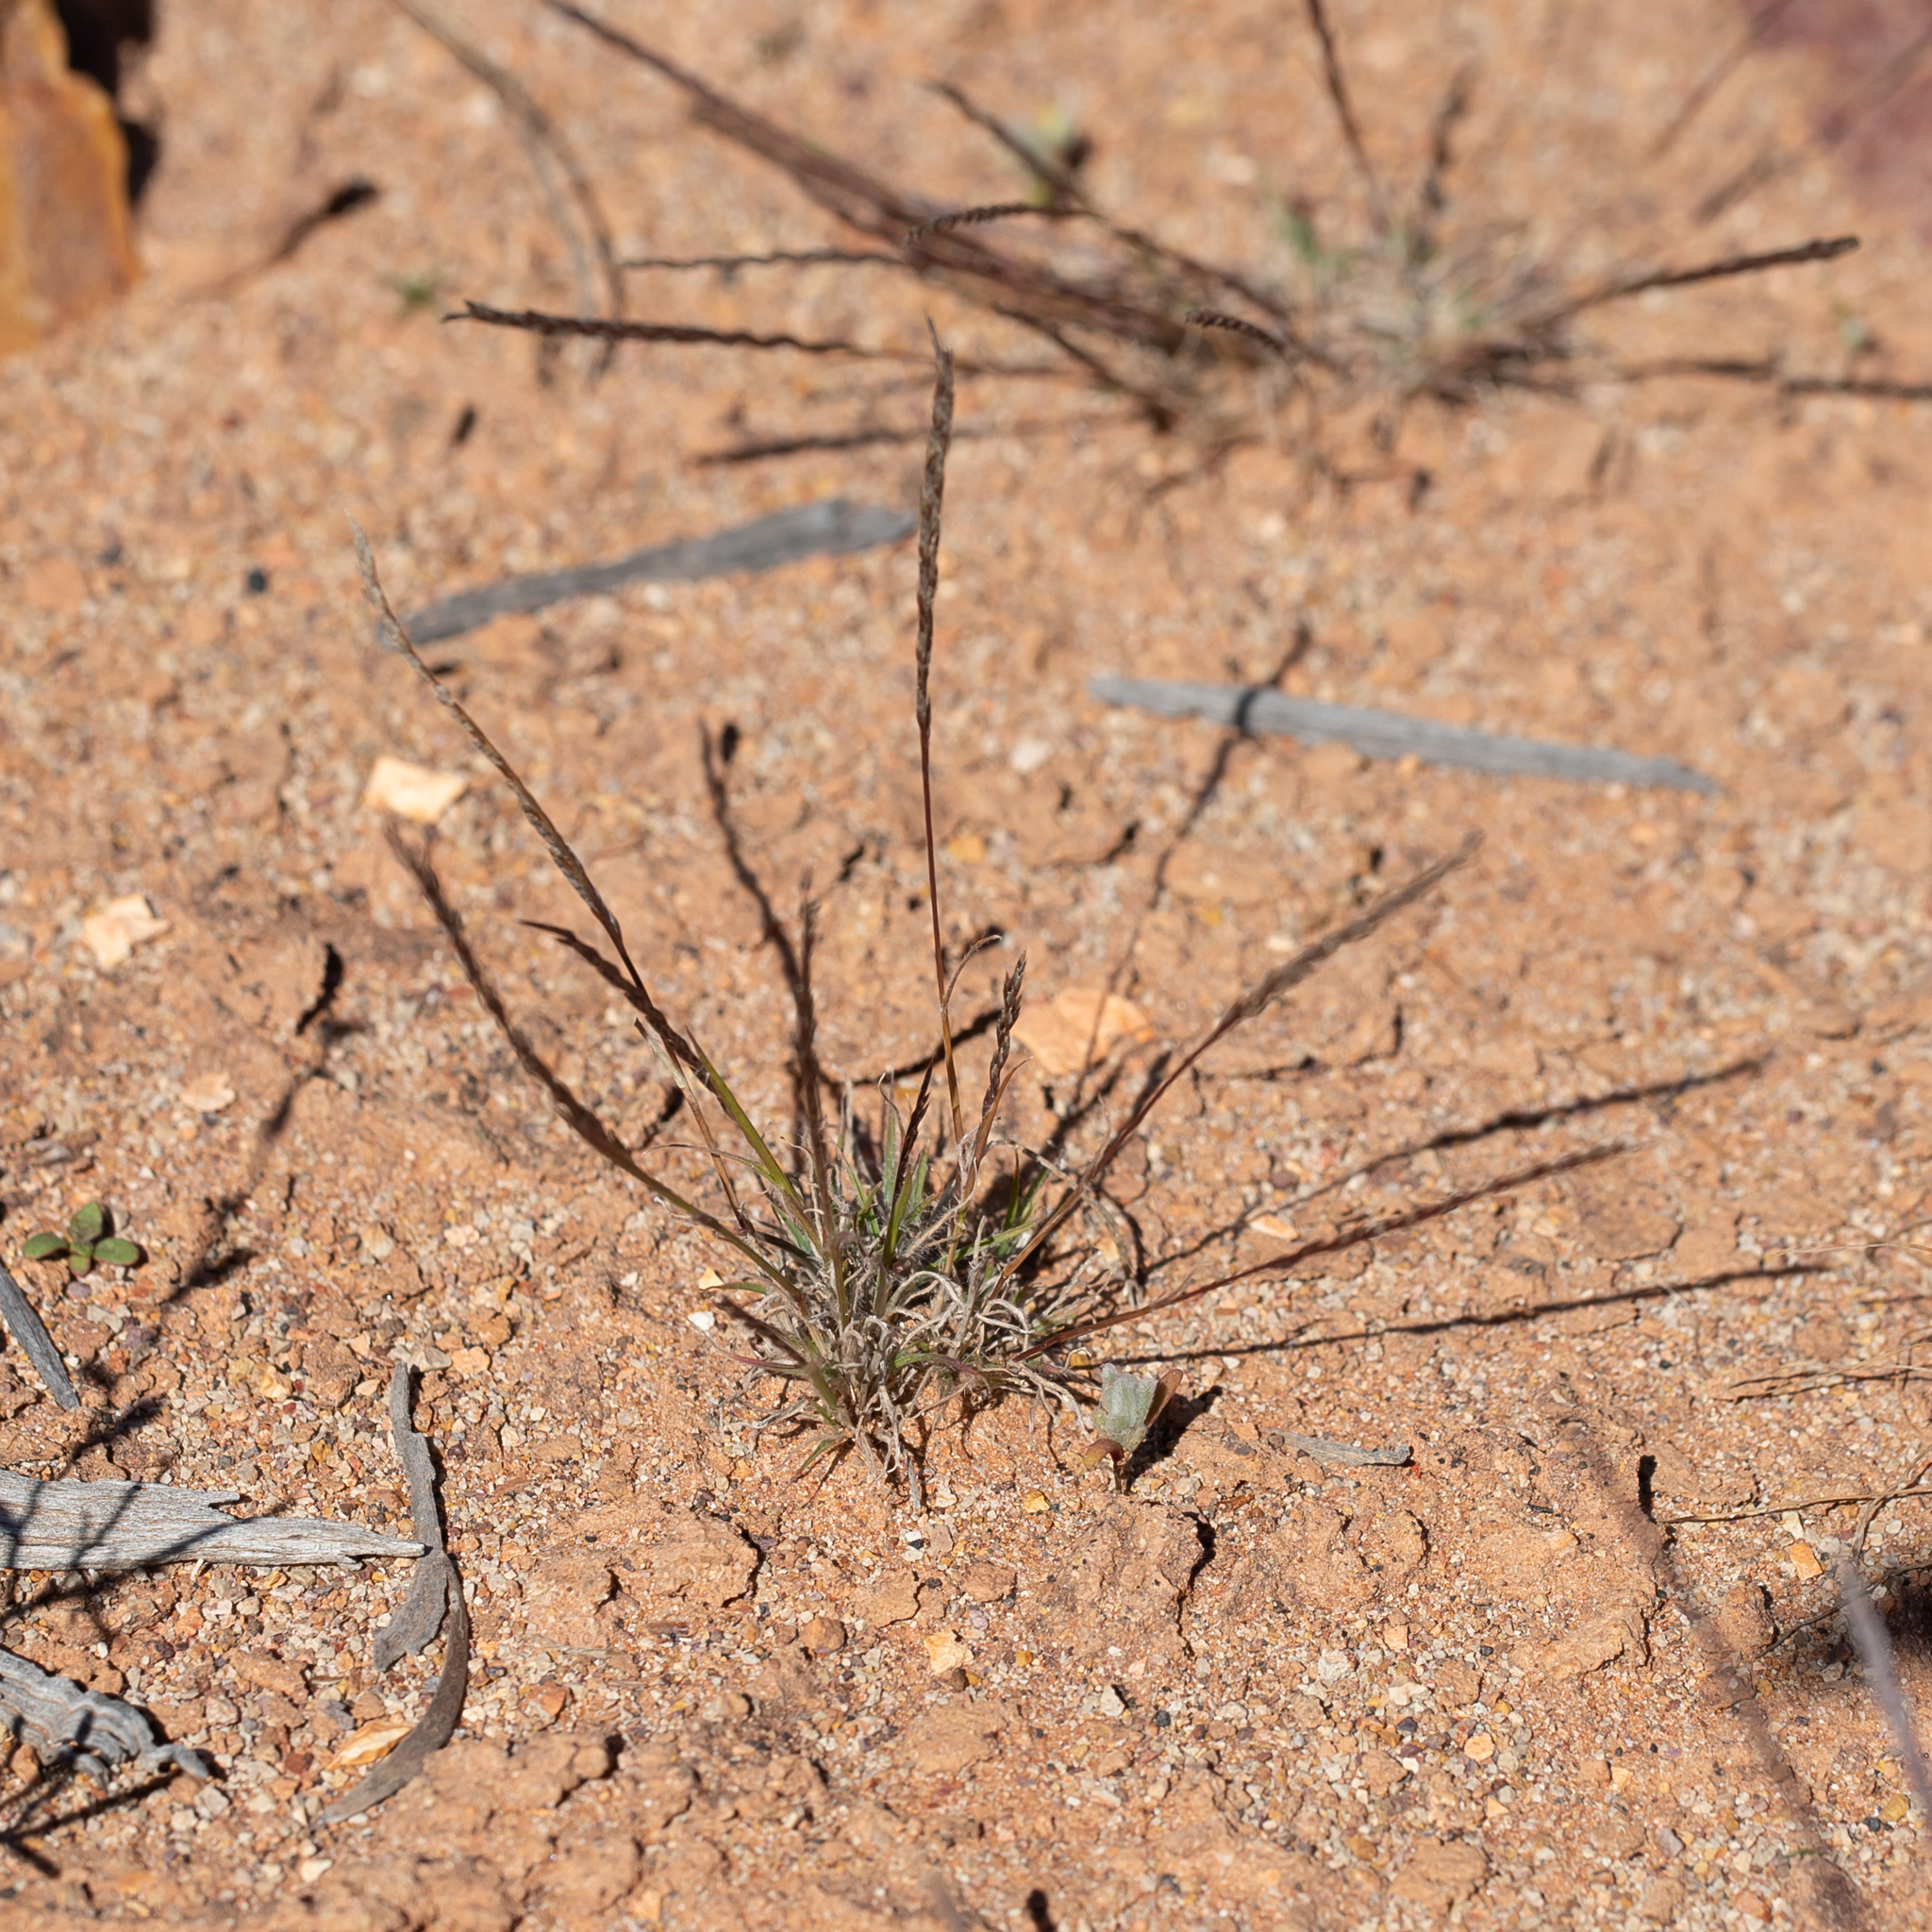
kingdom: Plantae
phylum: Tracheophyta
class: Liliopsida
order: Poales
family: Poaceae
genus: Tripogonella
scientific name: Tripogonella loliiformis
